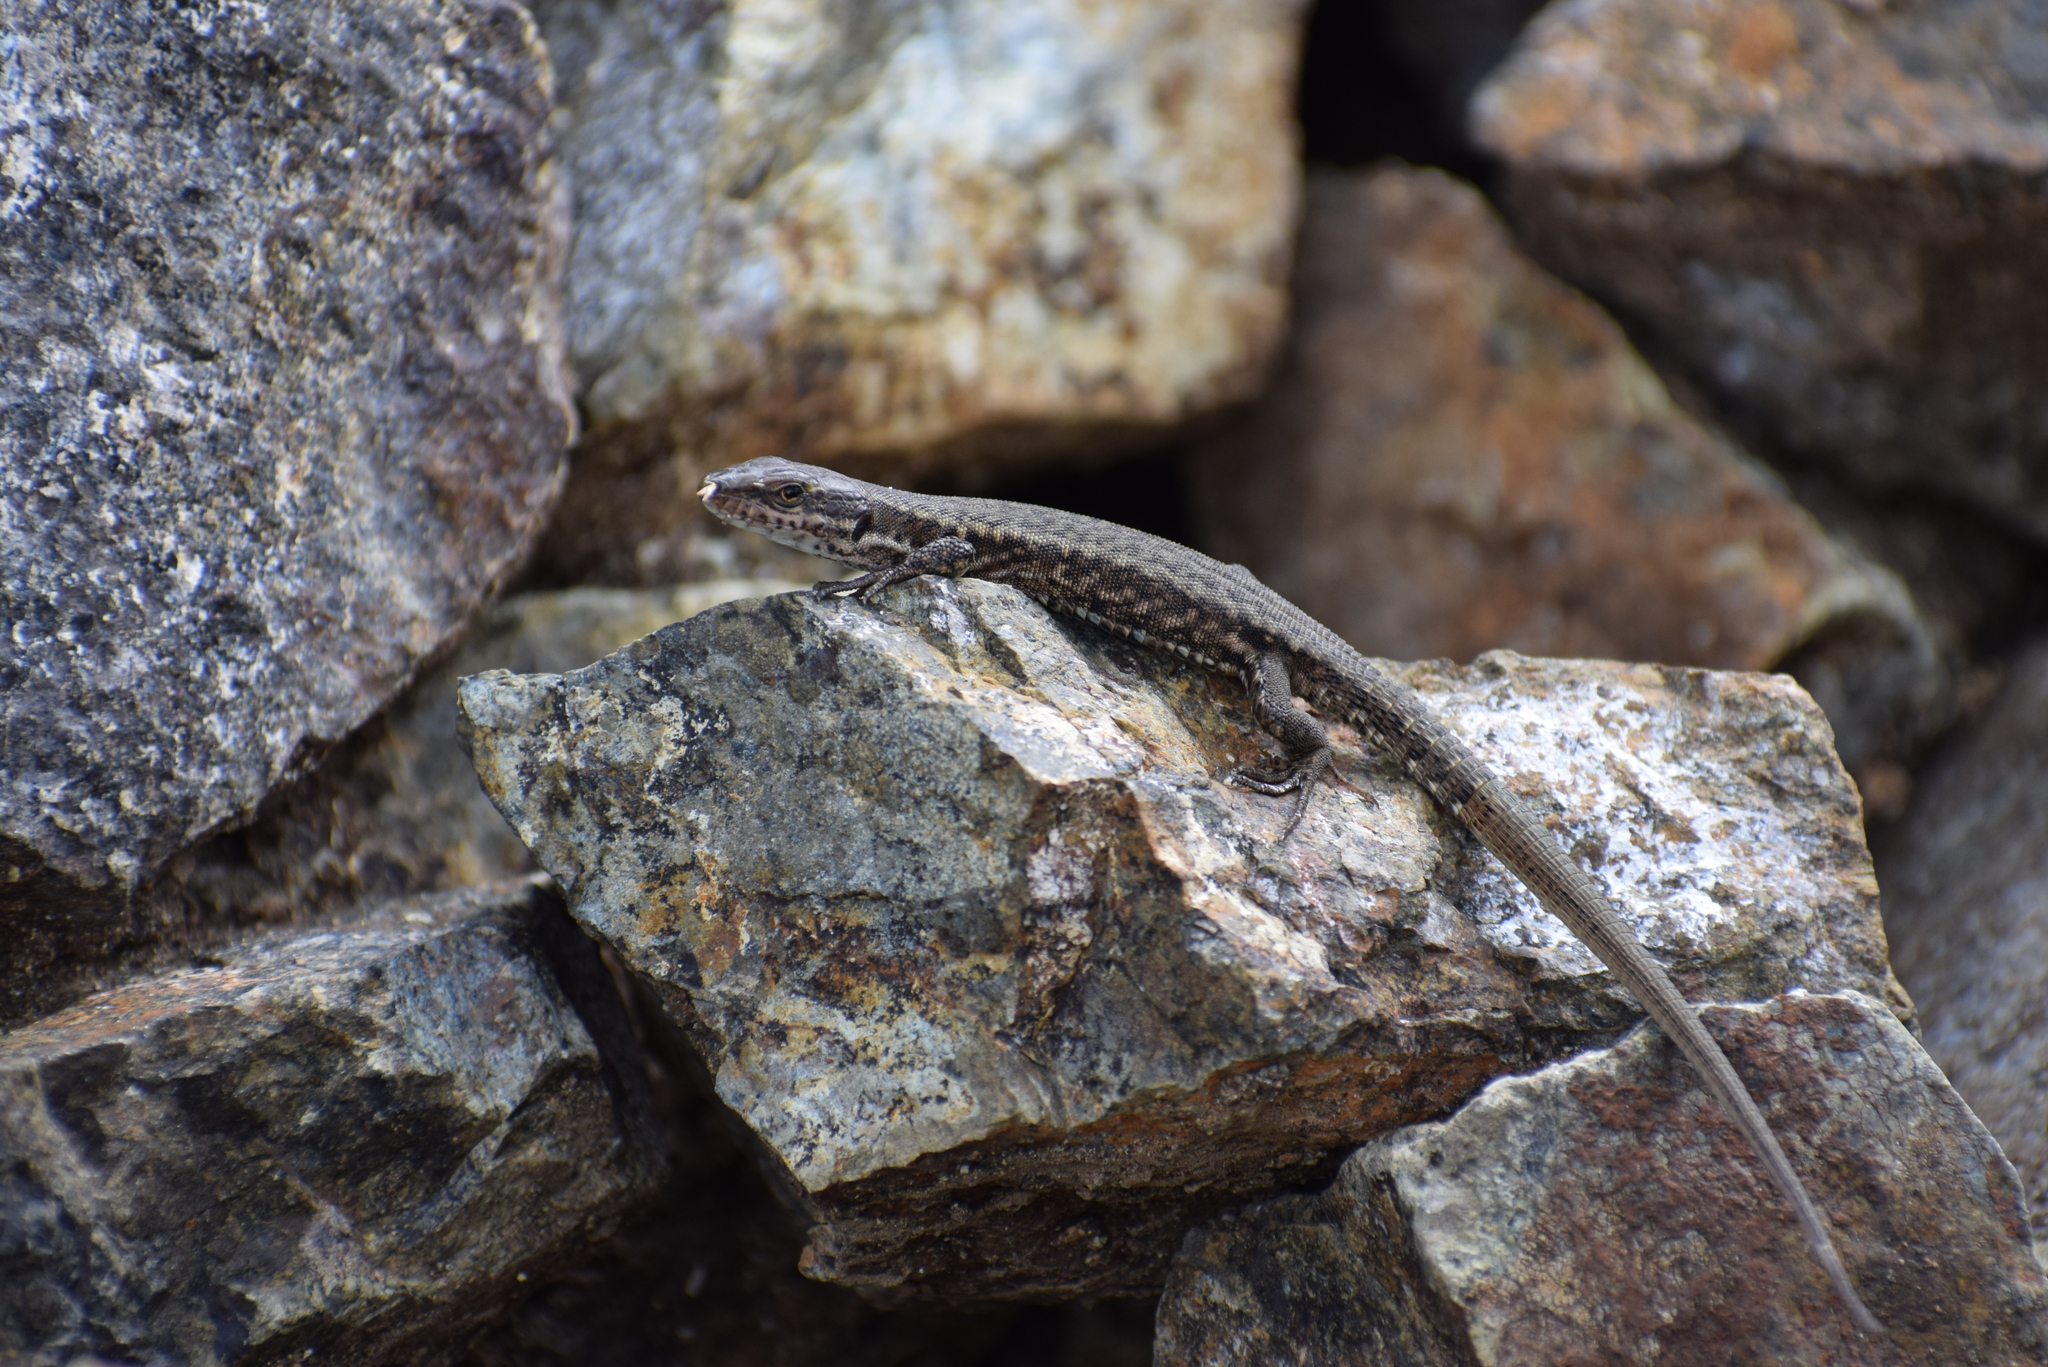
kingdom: Animalia
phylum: Chordata
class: Squamata
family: Lacertidae
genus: Podarcis
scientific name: Podarcis muralis
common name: Common wall lizard
